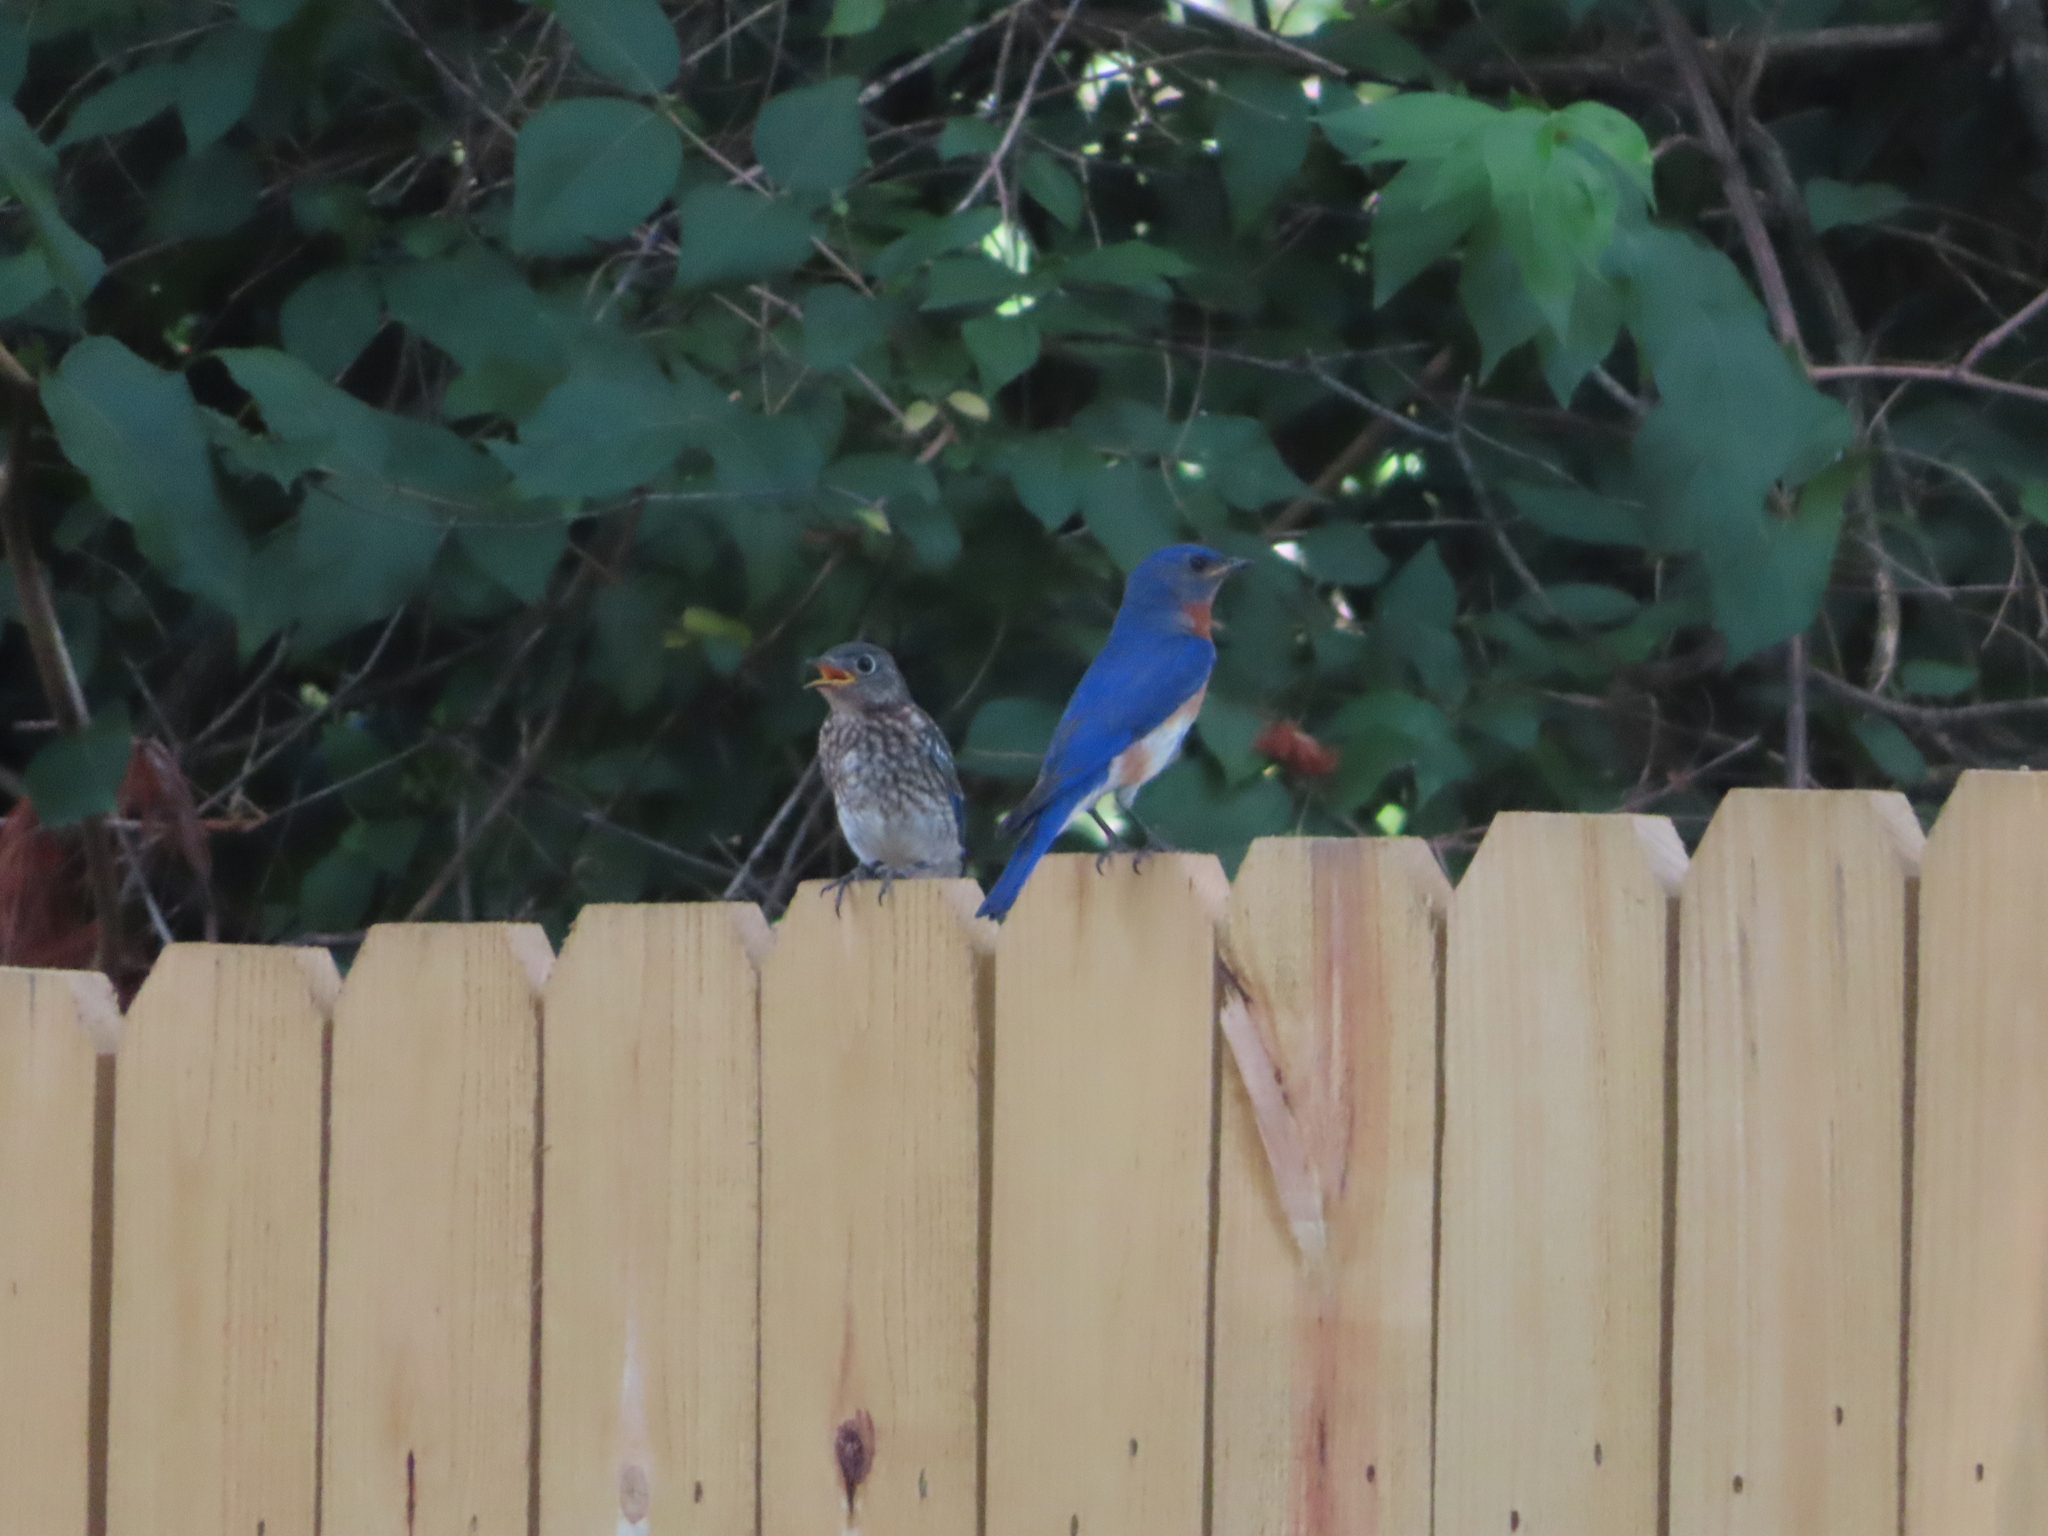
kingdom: Animalia
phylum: Chordata
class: Aves
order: Passeriformes
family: Turdidae
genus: Sialia
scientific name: Sialia sialis
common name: Eastern bluebird
